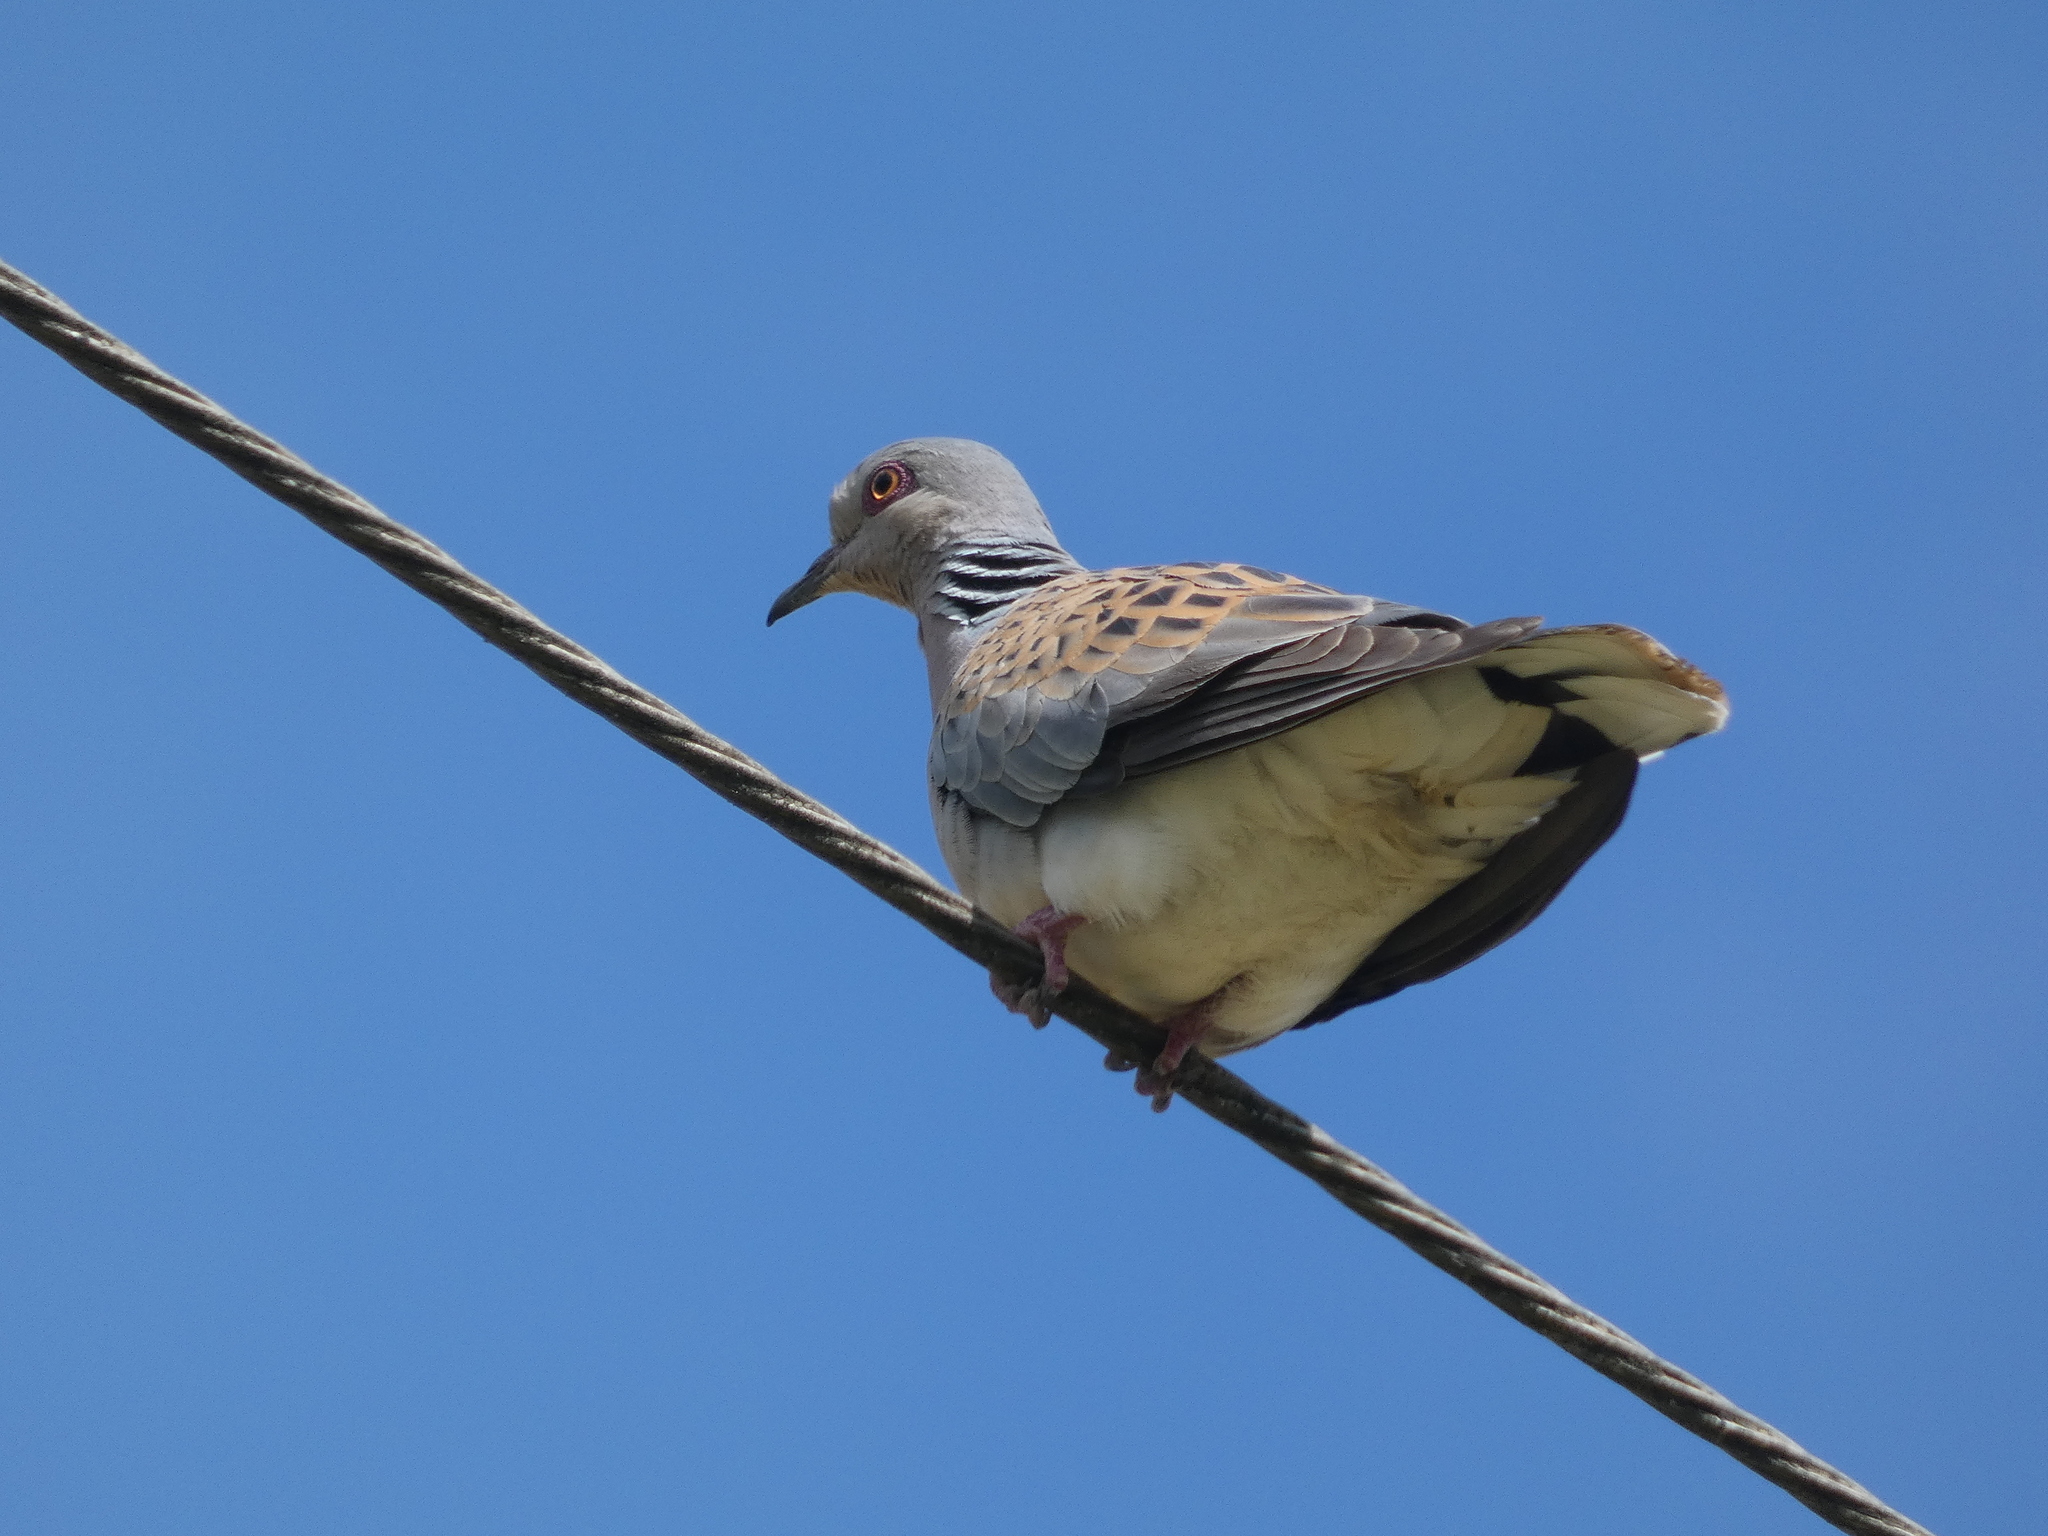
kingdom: Animalia
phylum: Chordata
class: Aves
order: Columbiformes
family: Columbidae
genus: Streptopelia
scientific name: Streptopelia turtur
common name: European turtle dove
